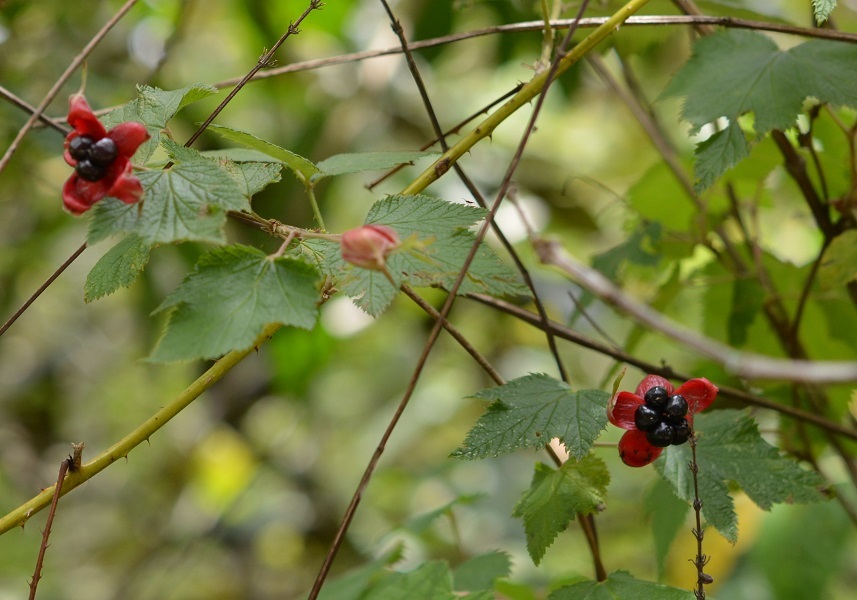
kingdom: Plantae
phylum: Tracheophyta
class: Magnoliopsida
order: Rosales
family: Rosaceae
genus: Rubus
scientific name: Rubus trilobus
